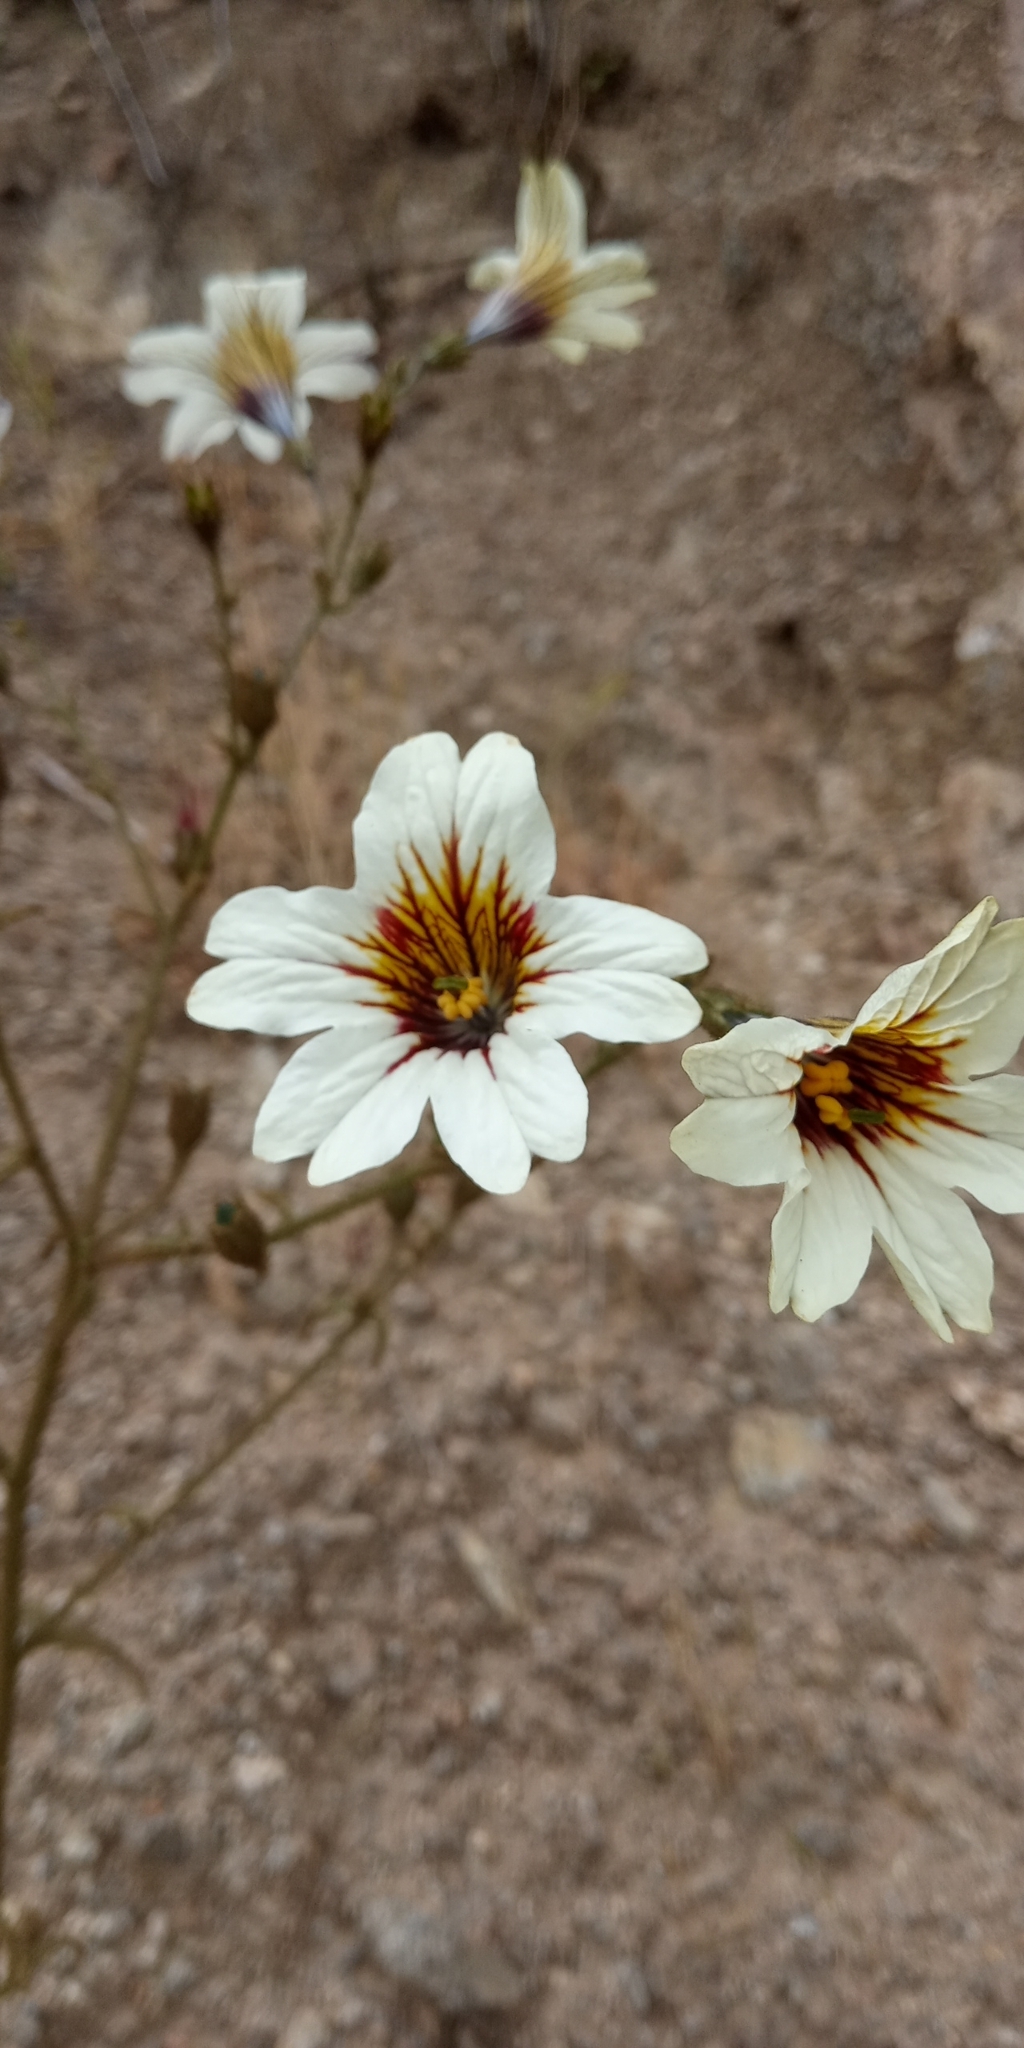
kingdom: Plantae
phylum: Tracheophyta
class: Magnoliopsida
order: Solanales
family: Solanaceae
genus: Salpiglossis
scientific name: Salpiglossis sinuata
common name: Painted-tongue
